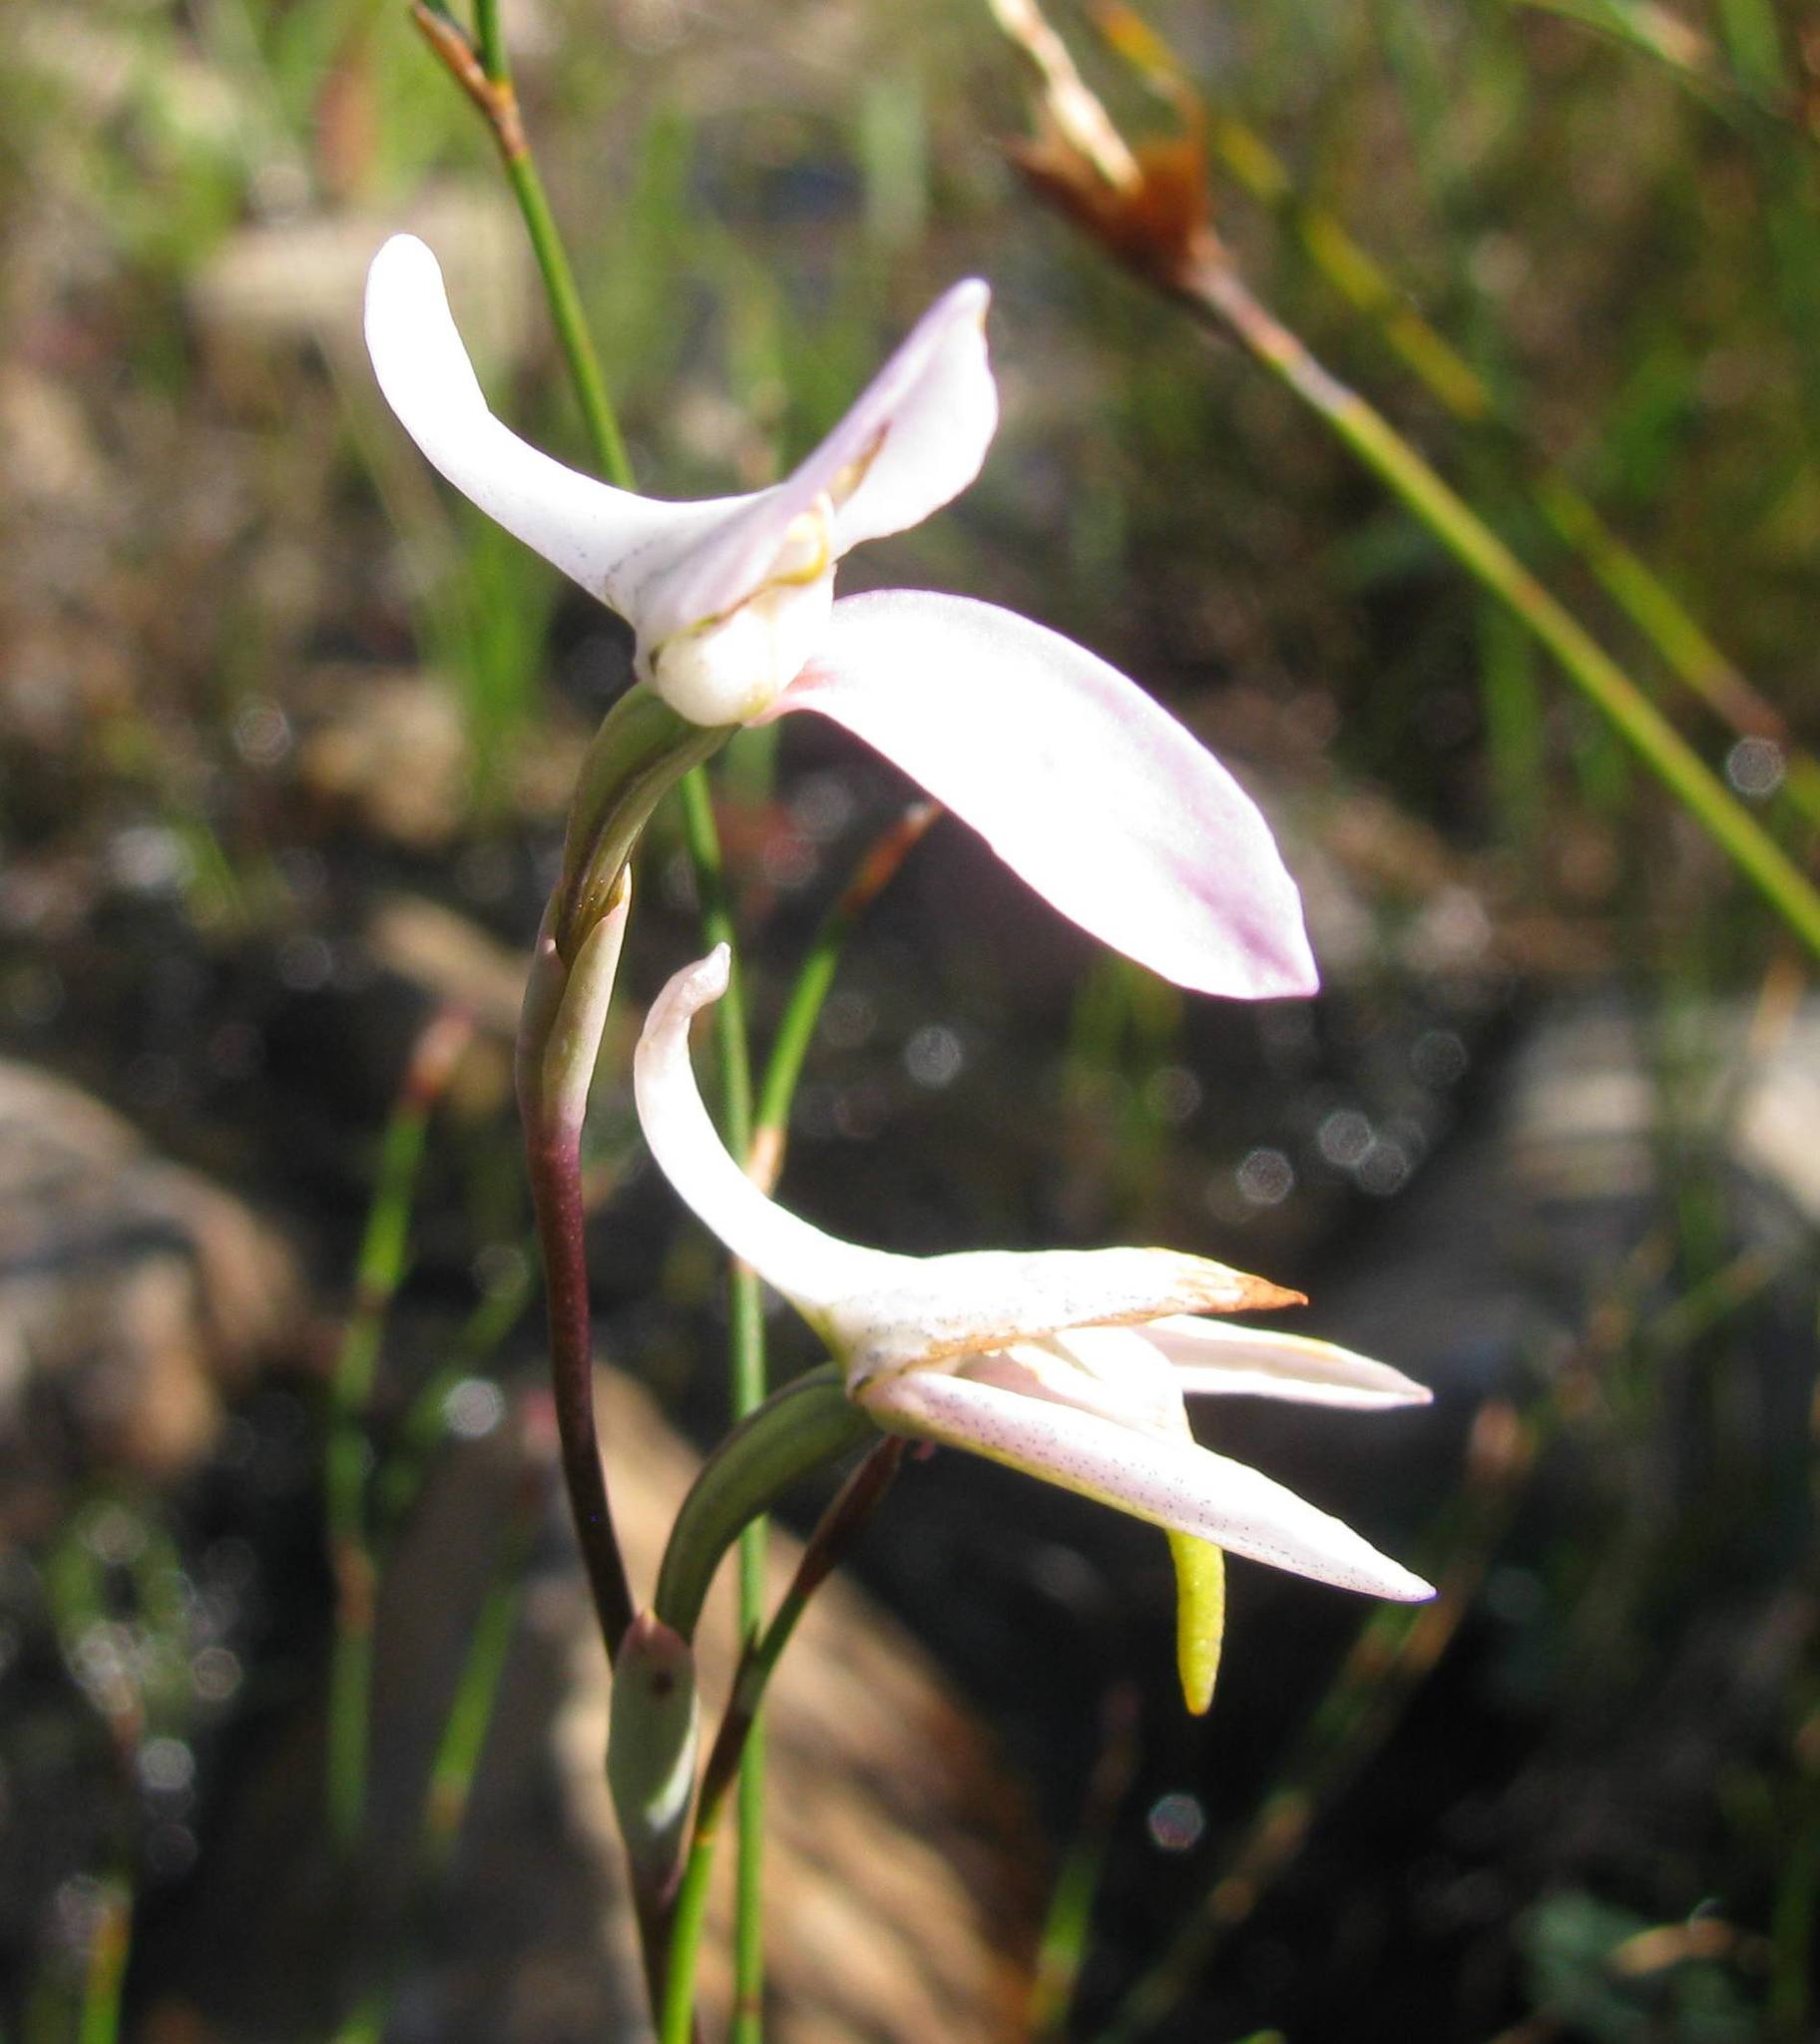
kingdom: Plantae
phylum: Tracheophyta
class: Liliopsida
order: Asparagales
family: Orchidaceae
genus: Disa
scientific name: Disa bifida
